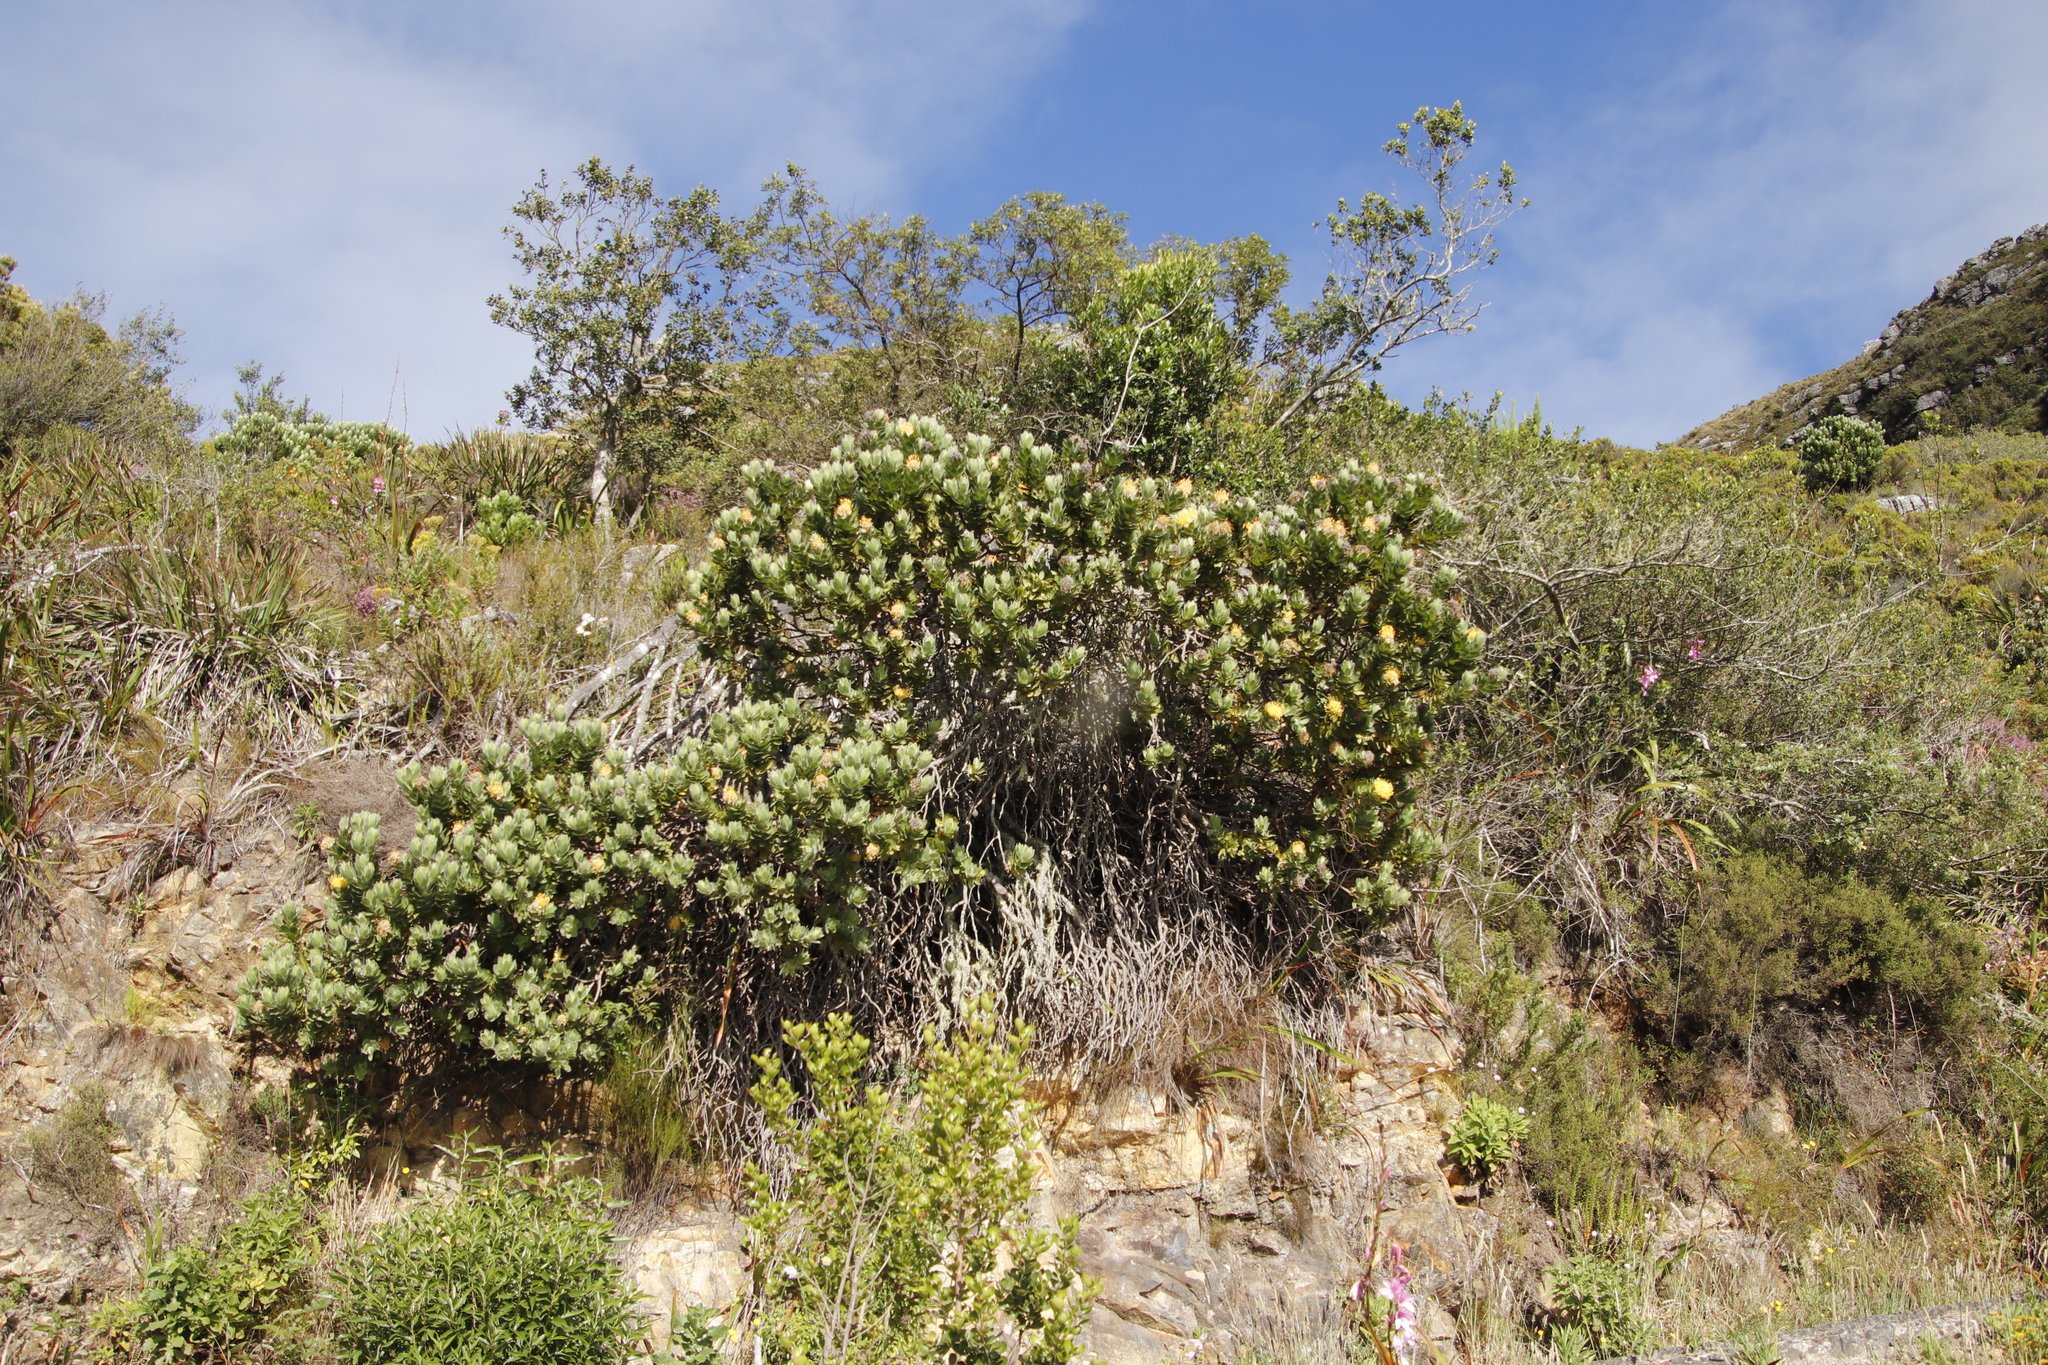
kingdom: Plantae
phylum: Tracheophyta
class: Magnoliopsida
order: Proteales
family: Proteaceae
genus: Leucospermum
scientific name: Leucospermum conocarpodendron
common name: Tree pincushion
